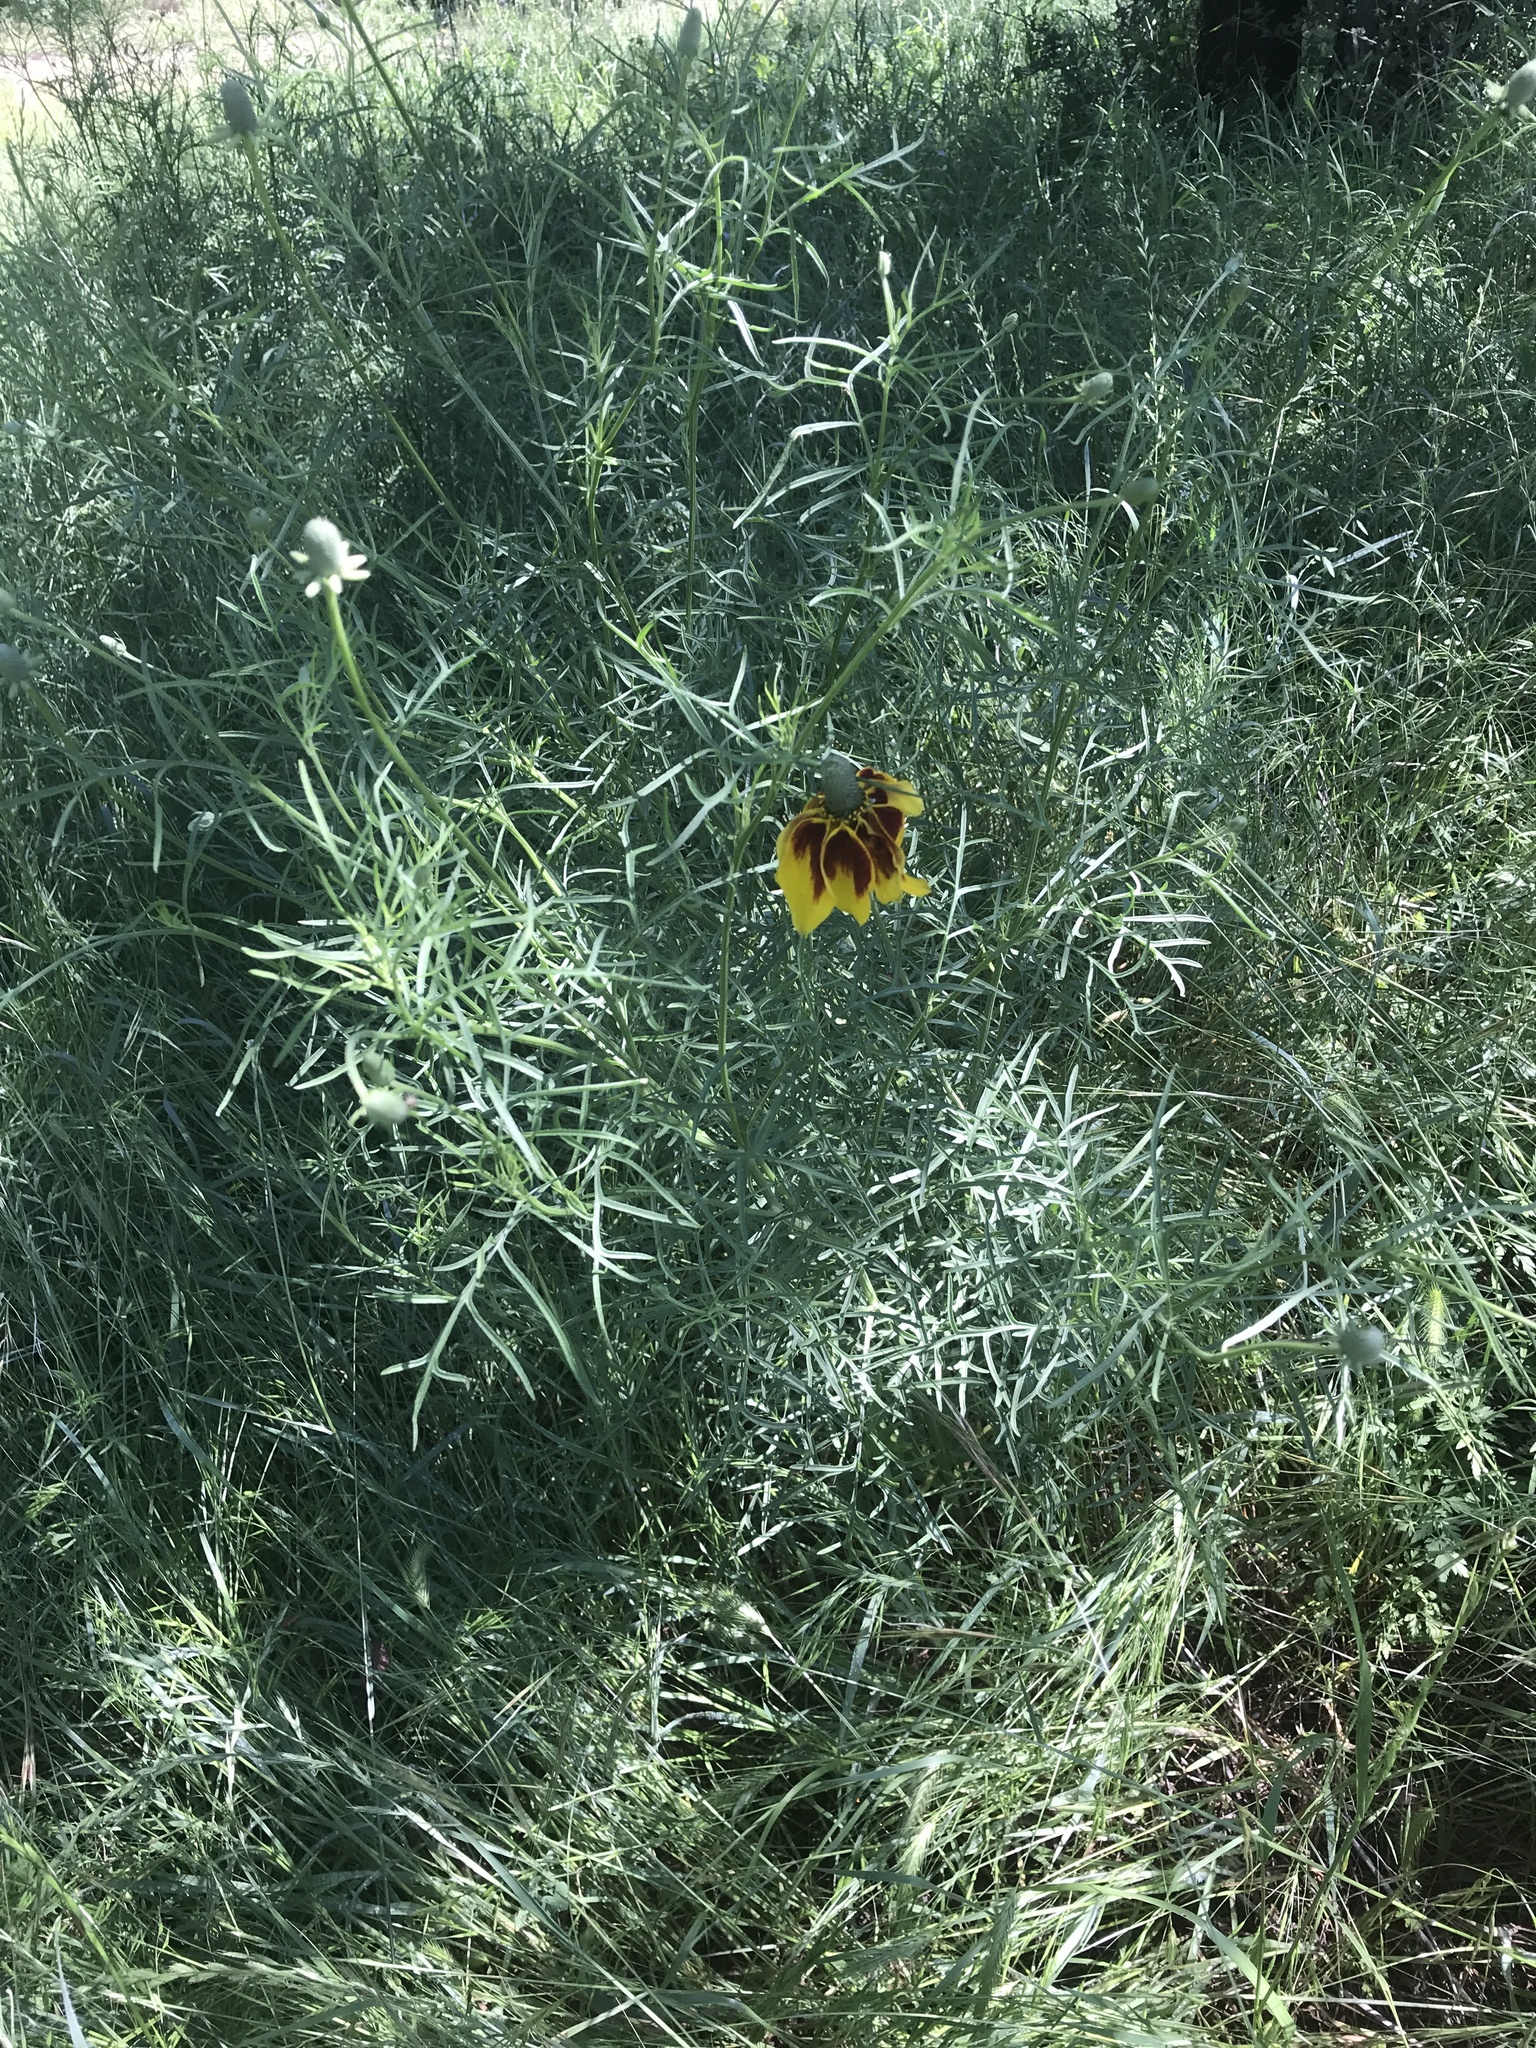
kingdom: Plantae
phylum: Tracheophyta
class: Magnoliopsida
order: Asterales
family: Asteraceae
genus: Ratibida
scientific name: Ratibida columnifera
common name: Prairie coneflower
